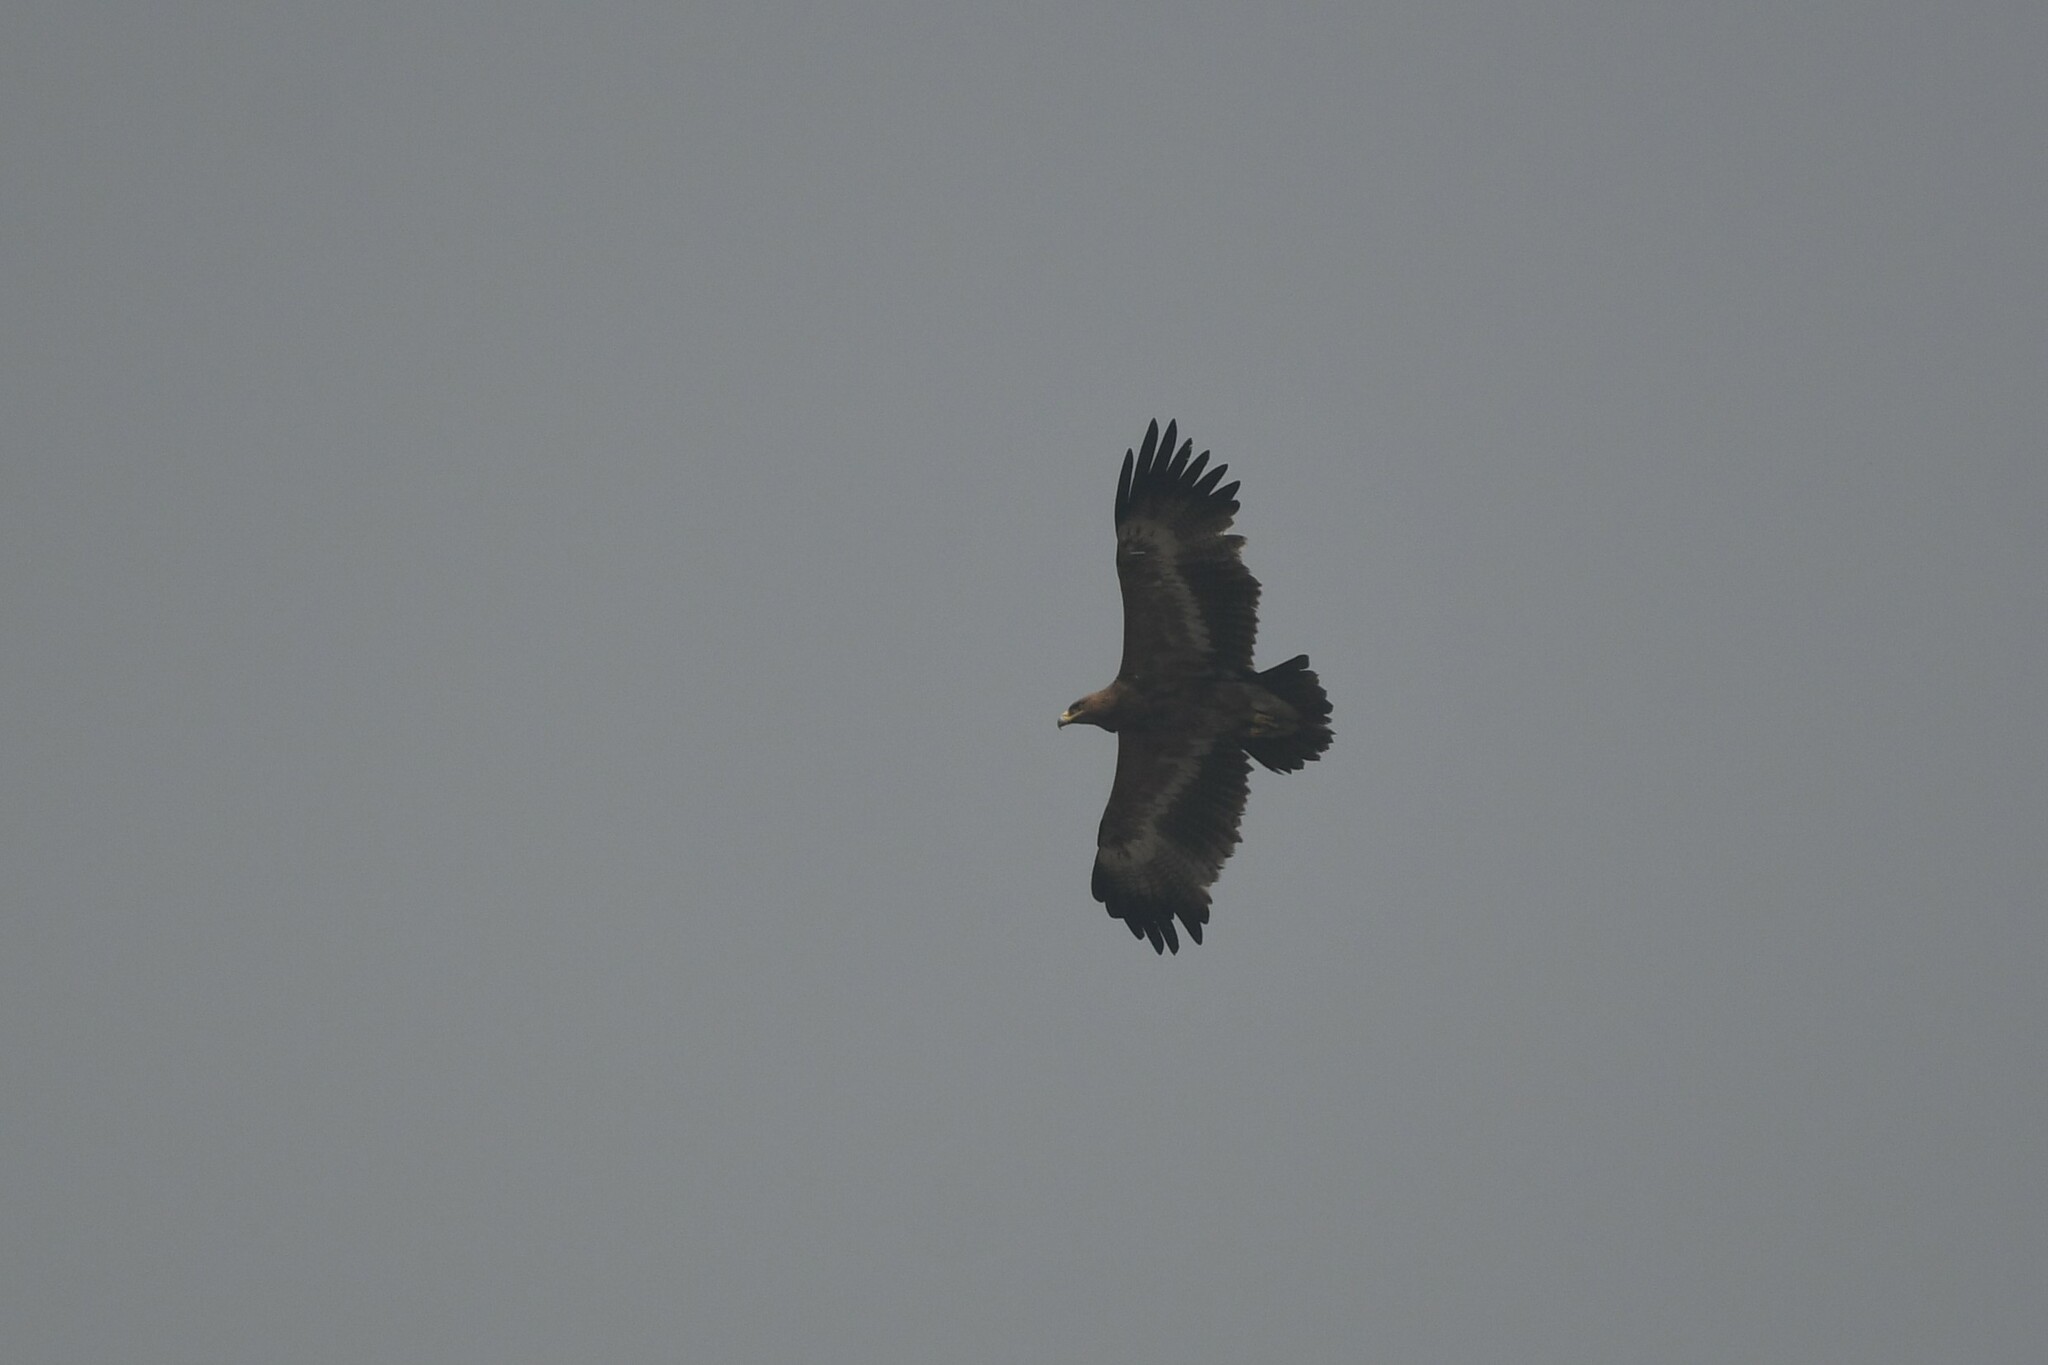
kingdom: Animalia
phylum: Chordata
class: Aves
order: Accipitriformes
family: Accipitridae
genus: Aquila
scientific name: Aquila nipalensis
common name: Steppe eagle
